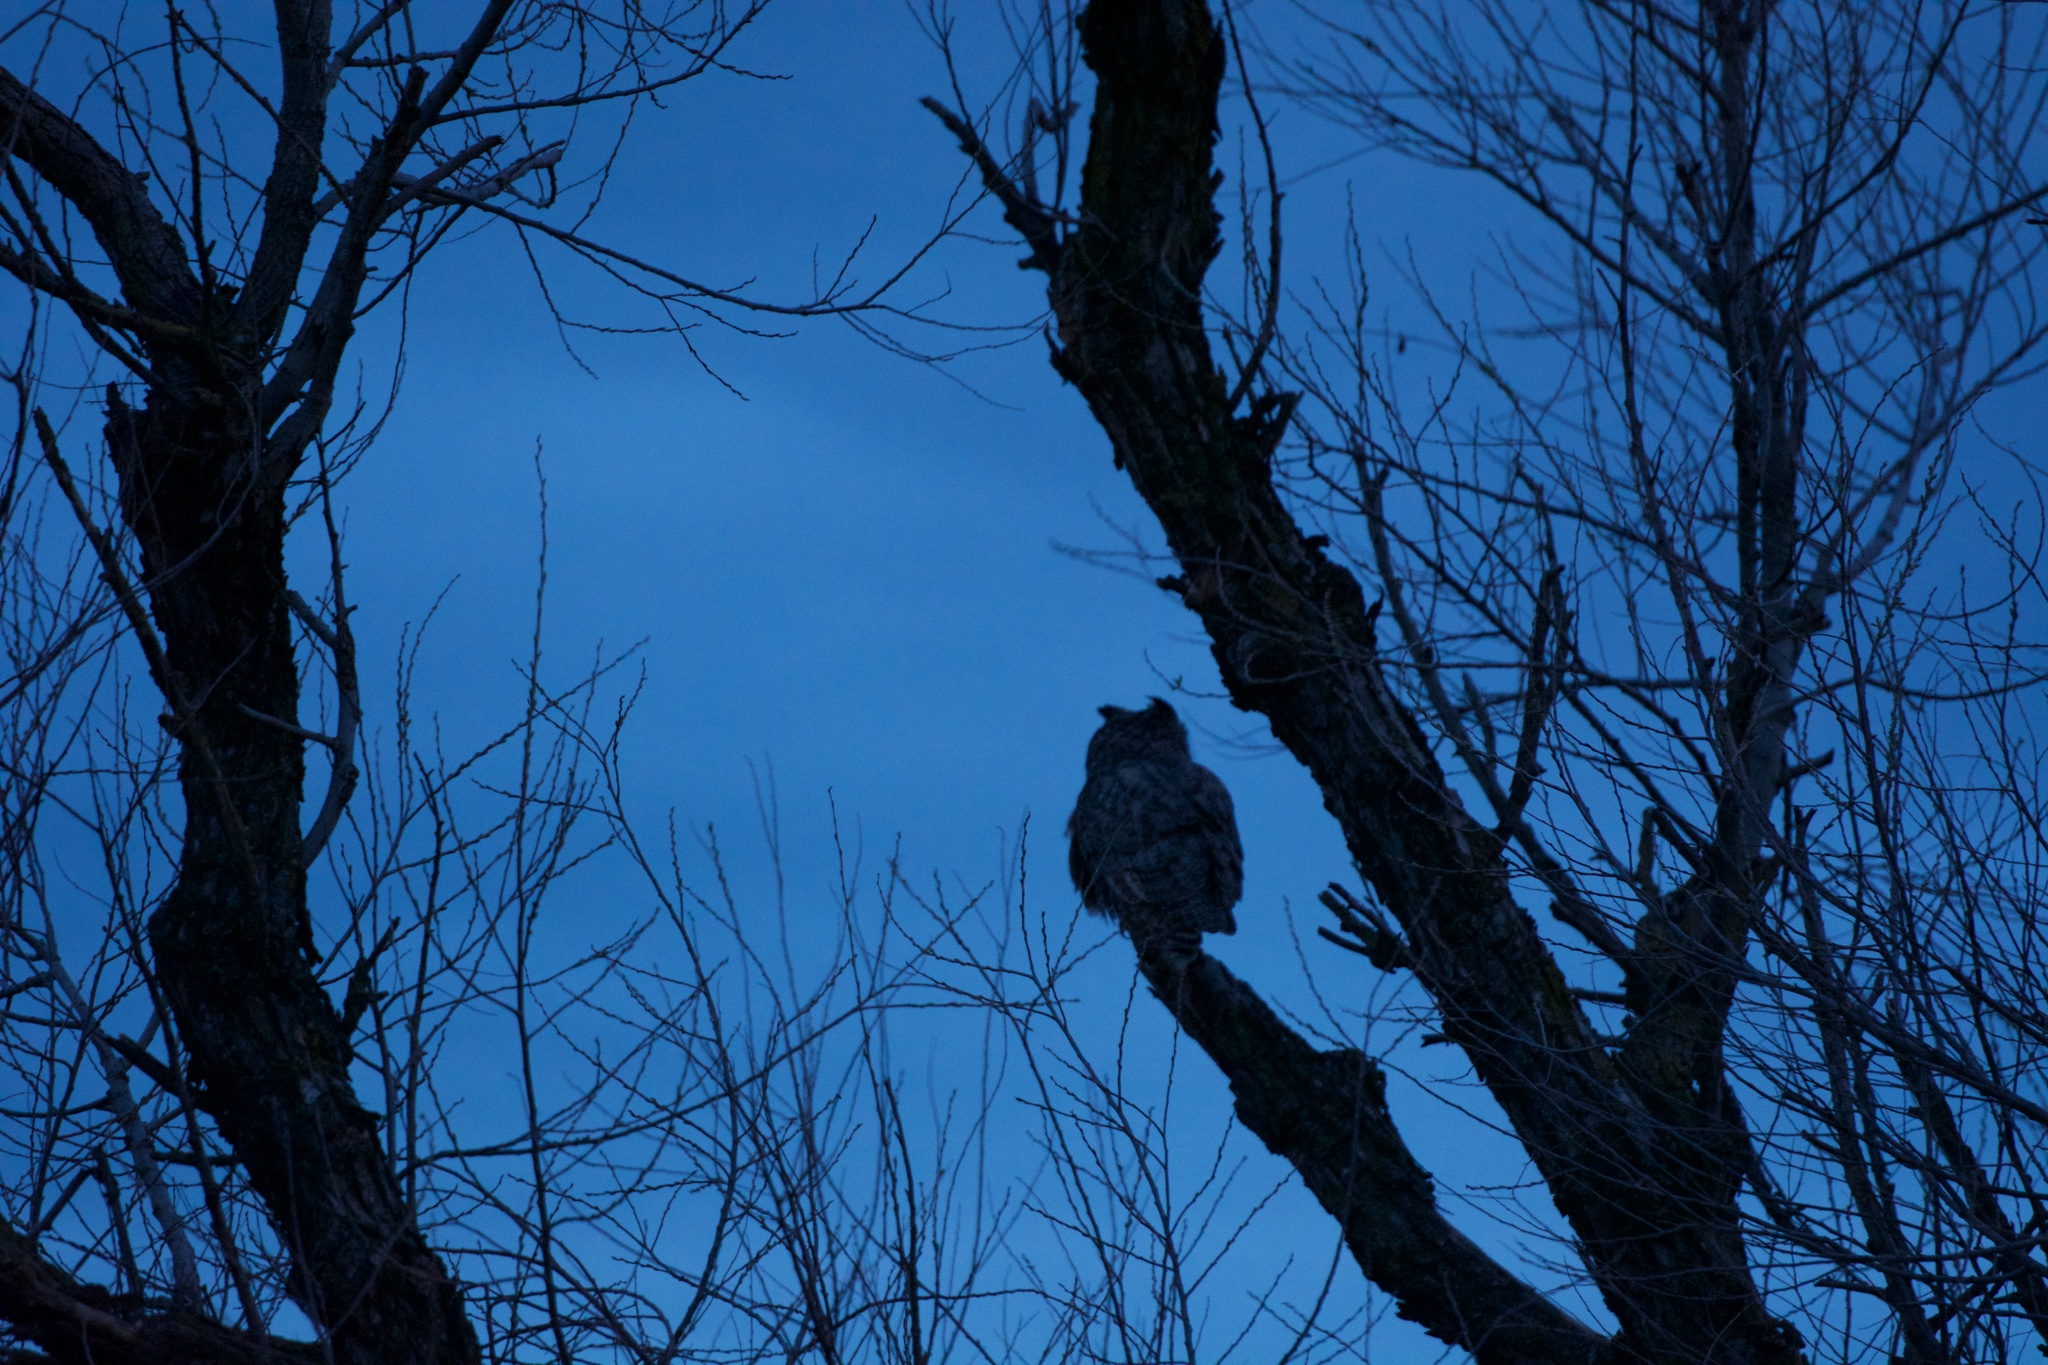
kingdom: Animalia
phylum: Chordata
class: Aves
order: Strigiformes
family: Strigidae
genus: Bubo
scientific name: Bubo virginianus
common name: Great horned owl
